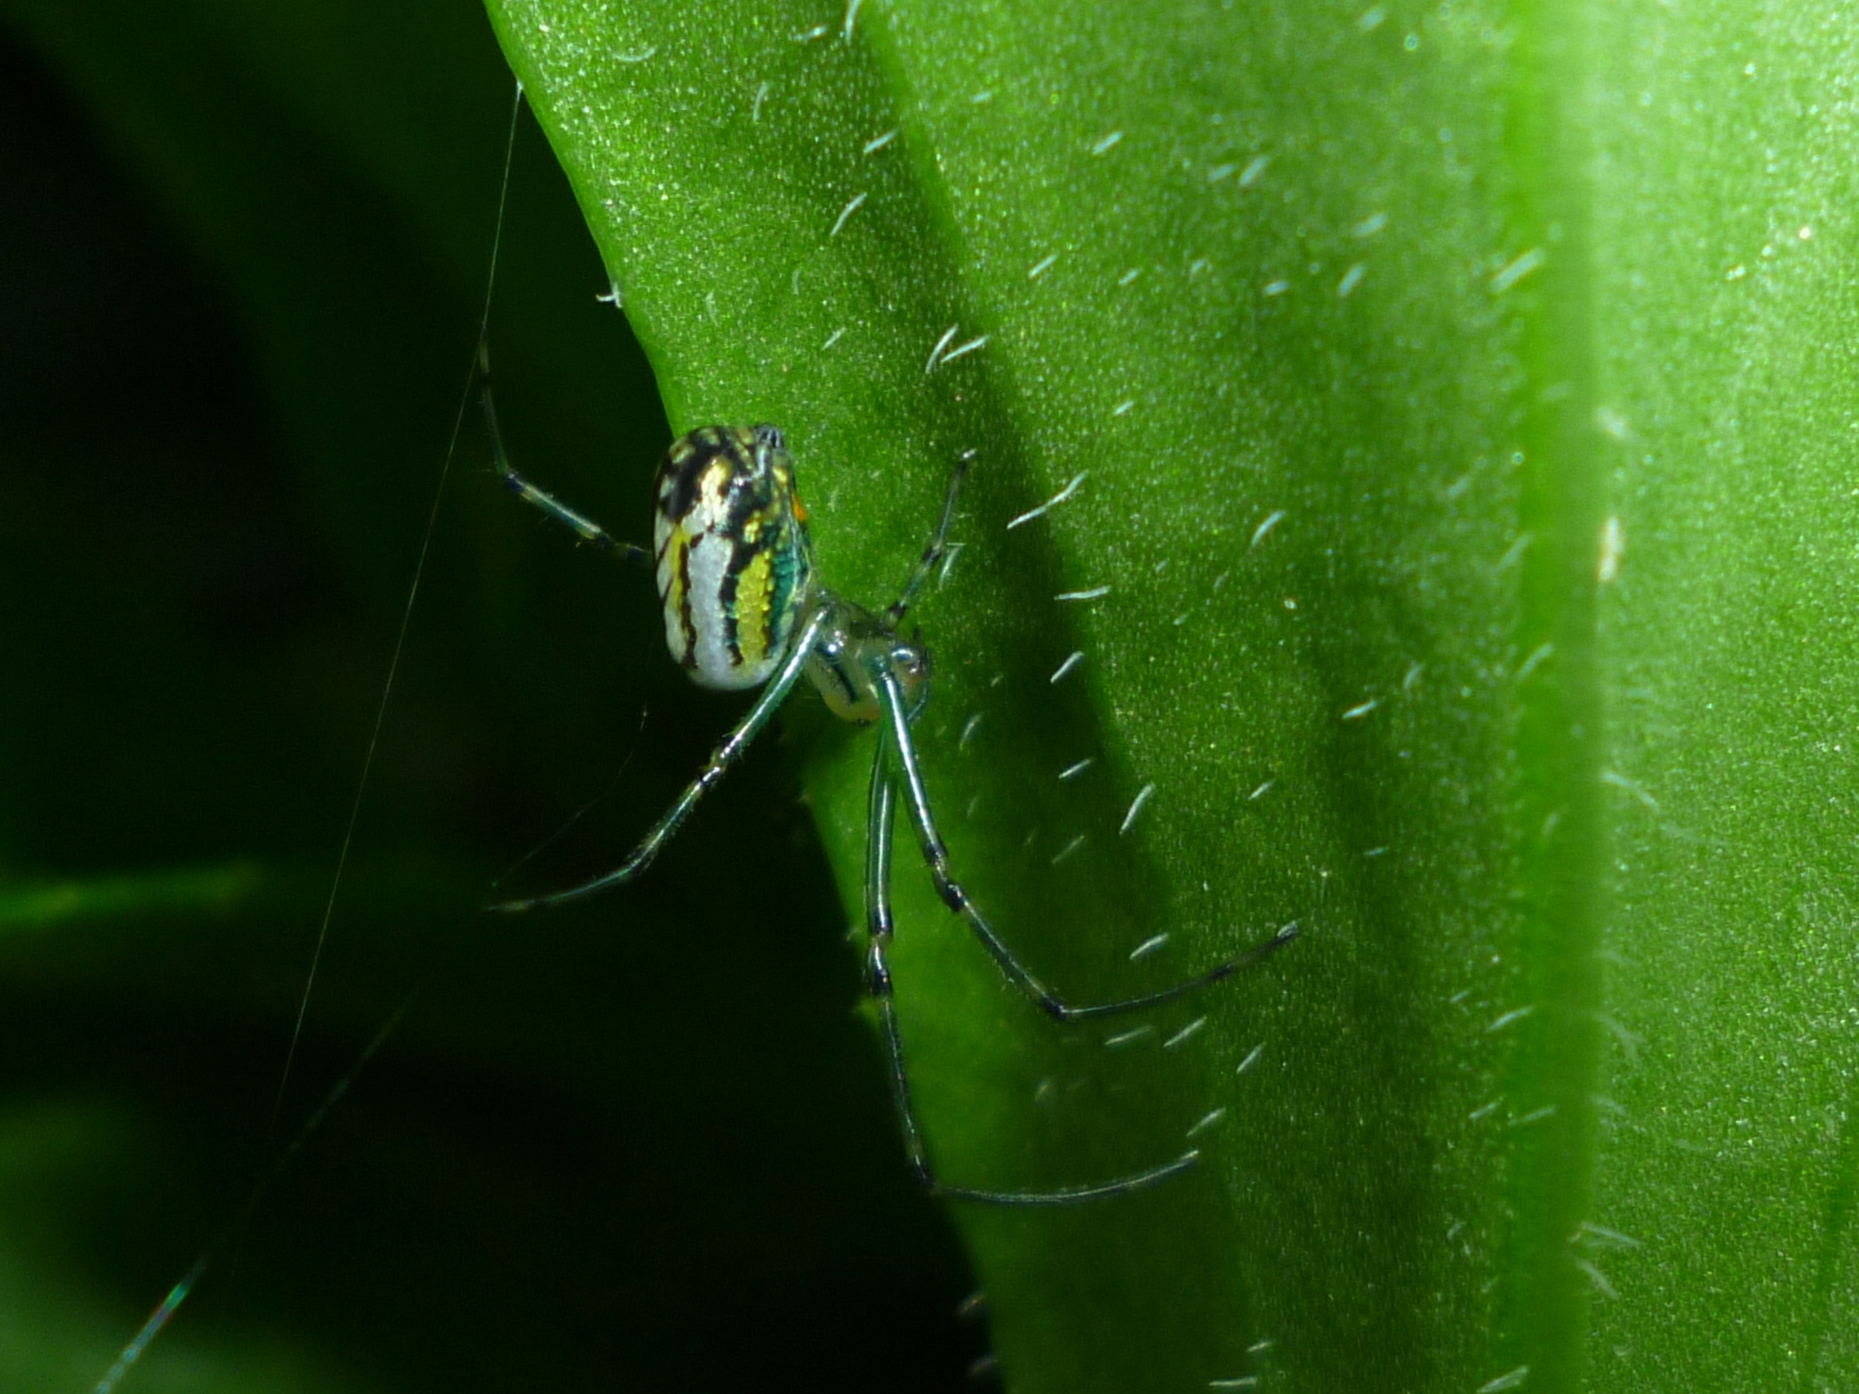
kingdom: Animalia
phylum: Arthropoda
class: Arachnida
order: Araneae
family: Tetragnathidae
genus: Leucauge
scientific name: Leucauge venusta
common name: Longjawed orb weavers
